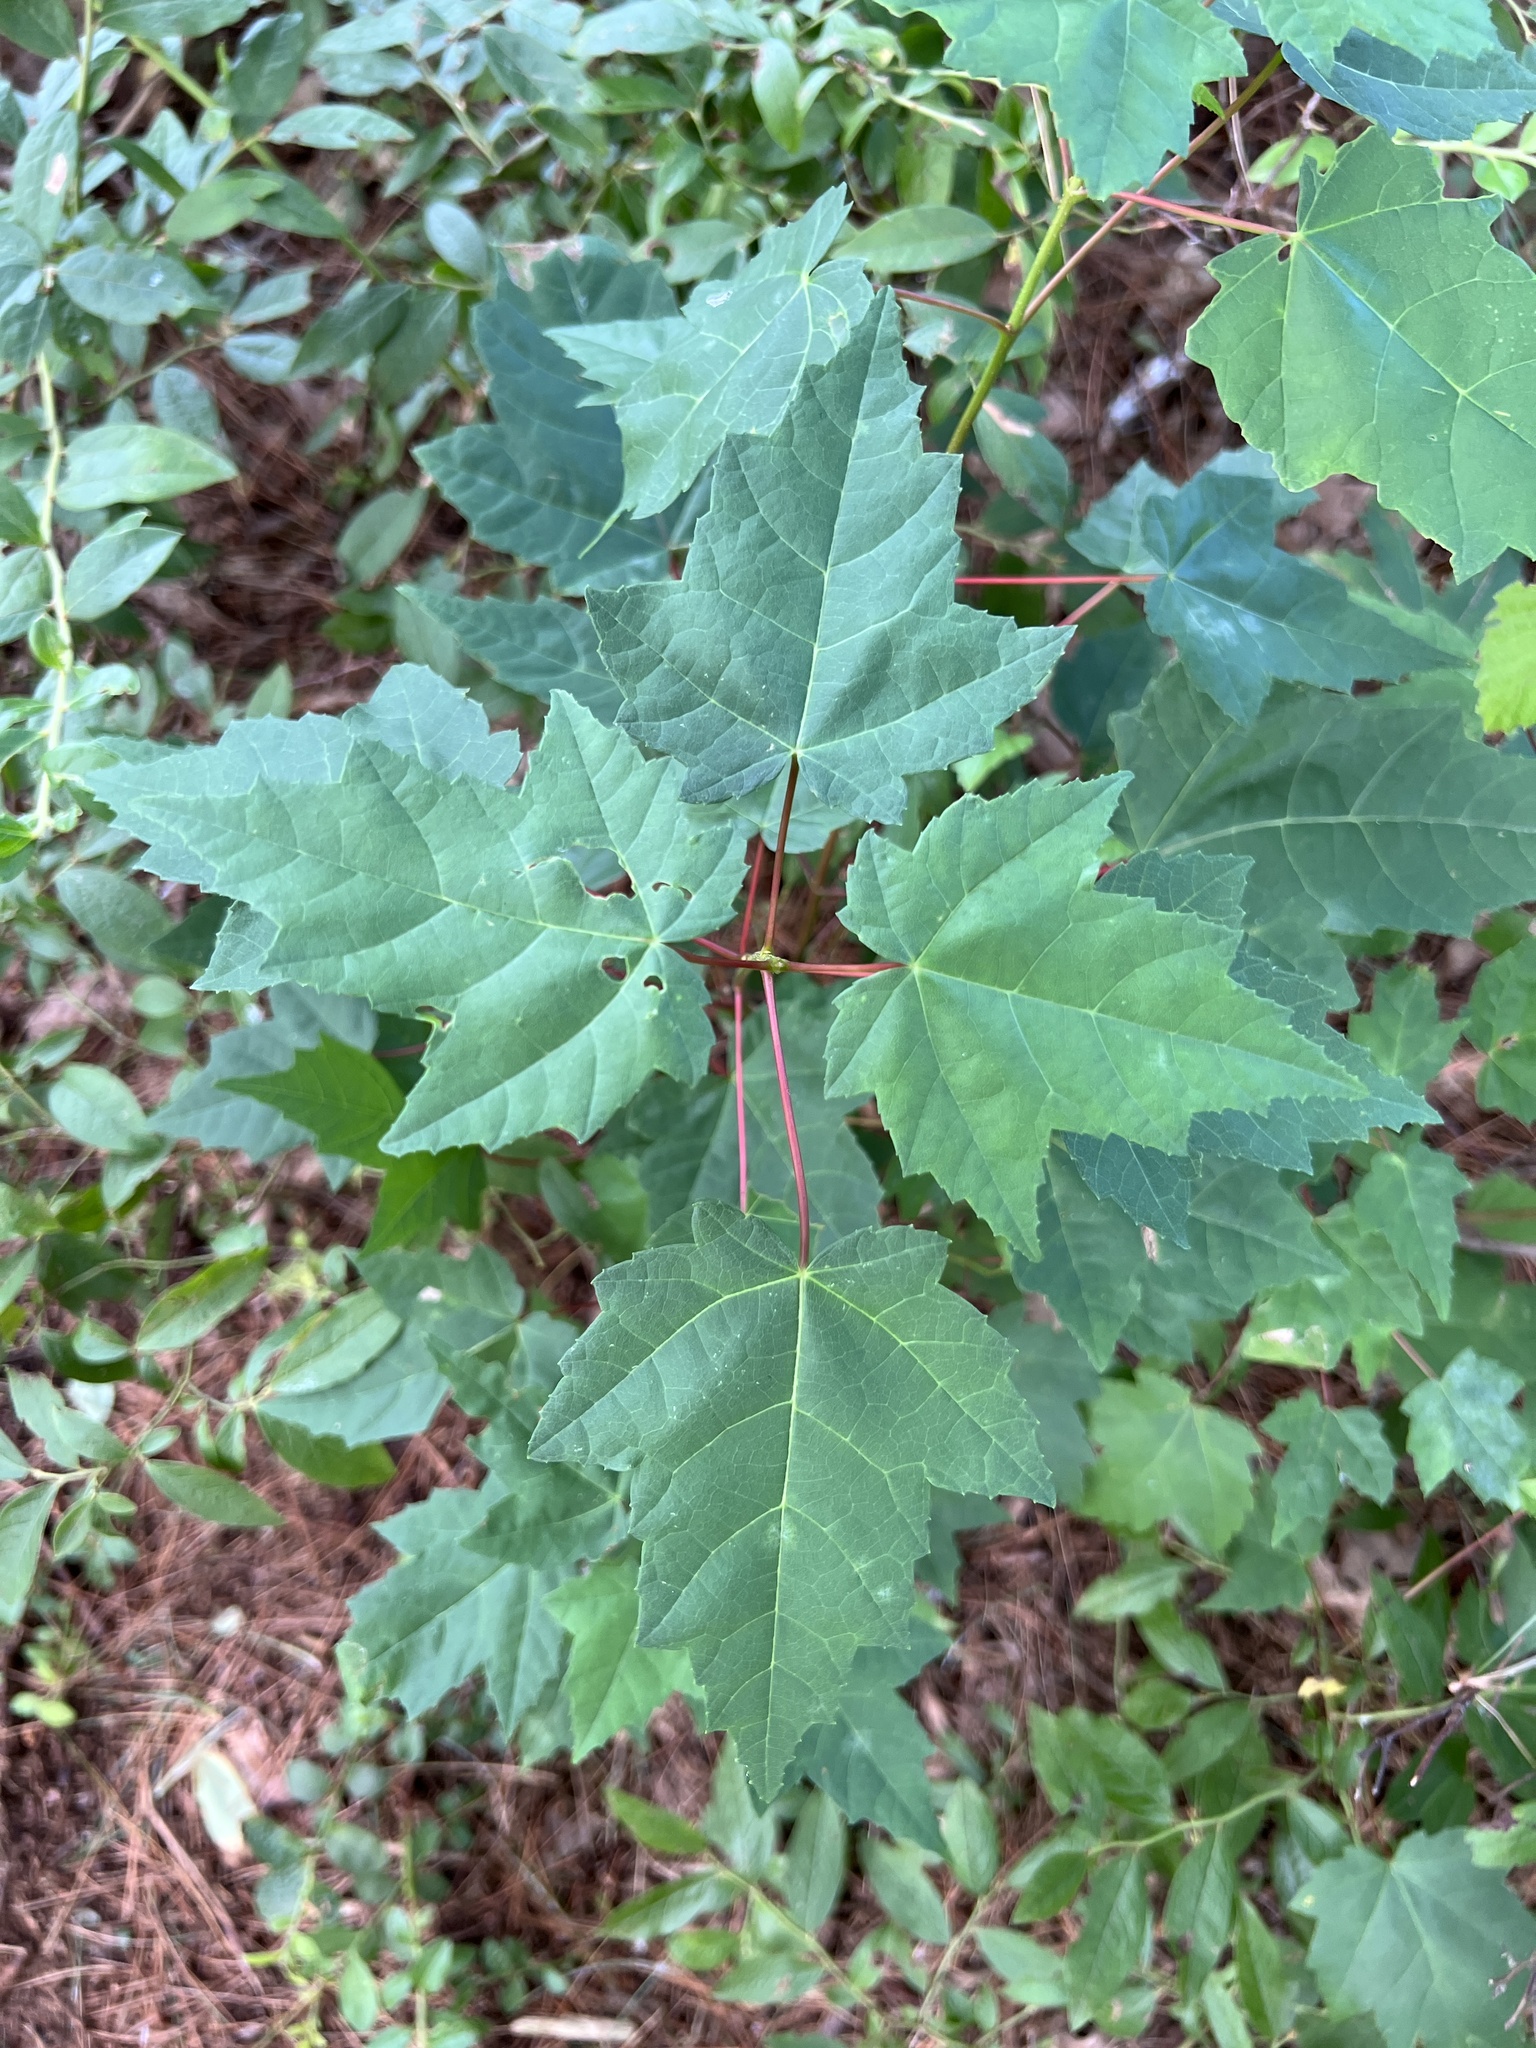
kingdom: Plantae
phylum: Tracheophyta
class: Magnoliopsida
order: Sapindales
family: Sapindaceae
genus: Acer
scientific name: Acer rubrum
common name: Red maple
